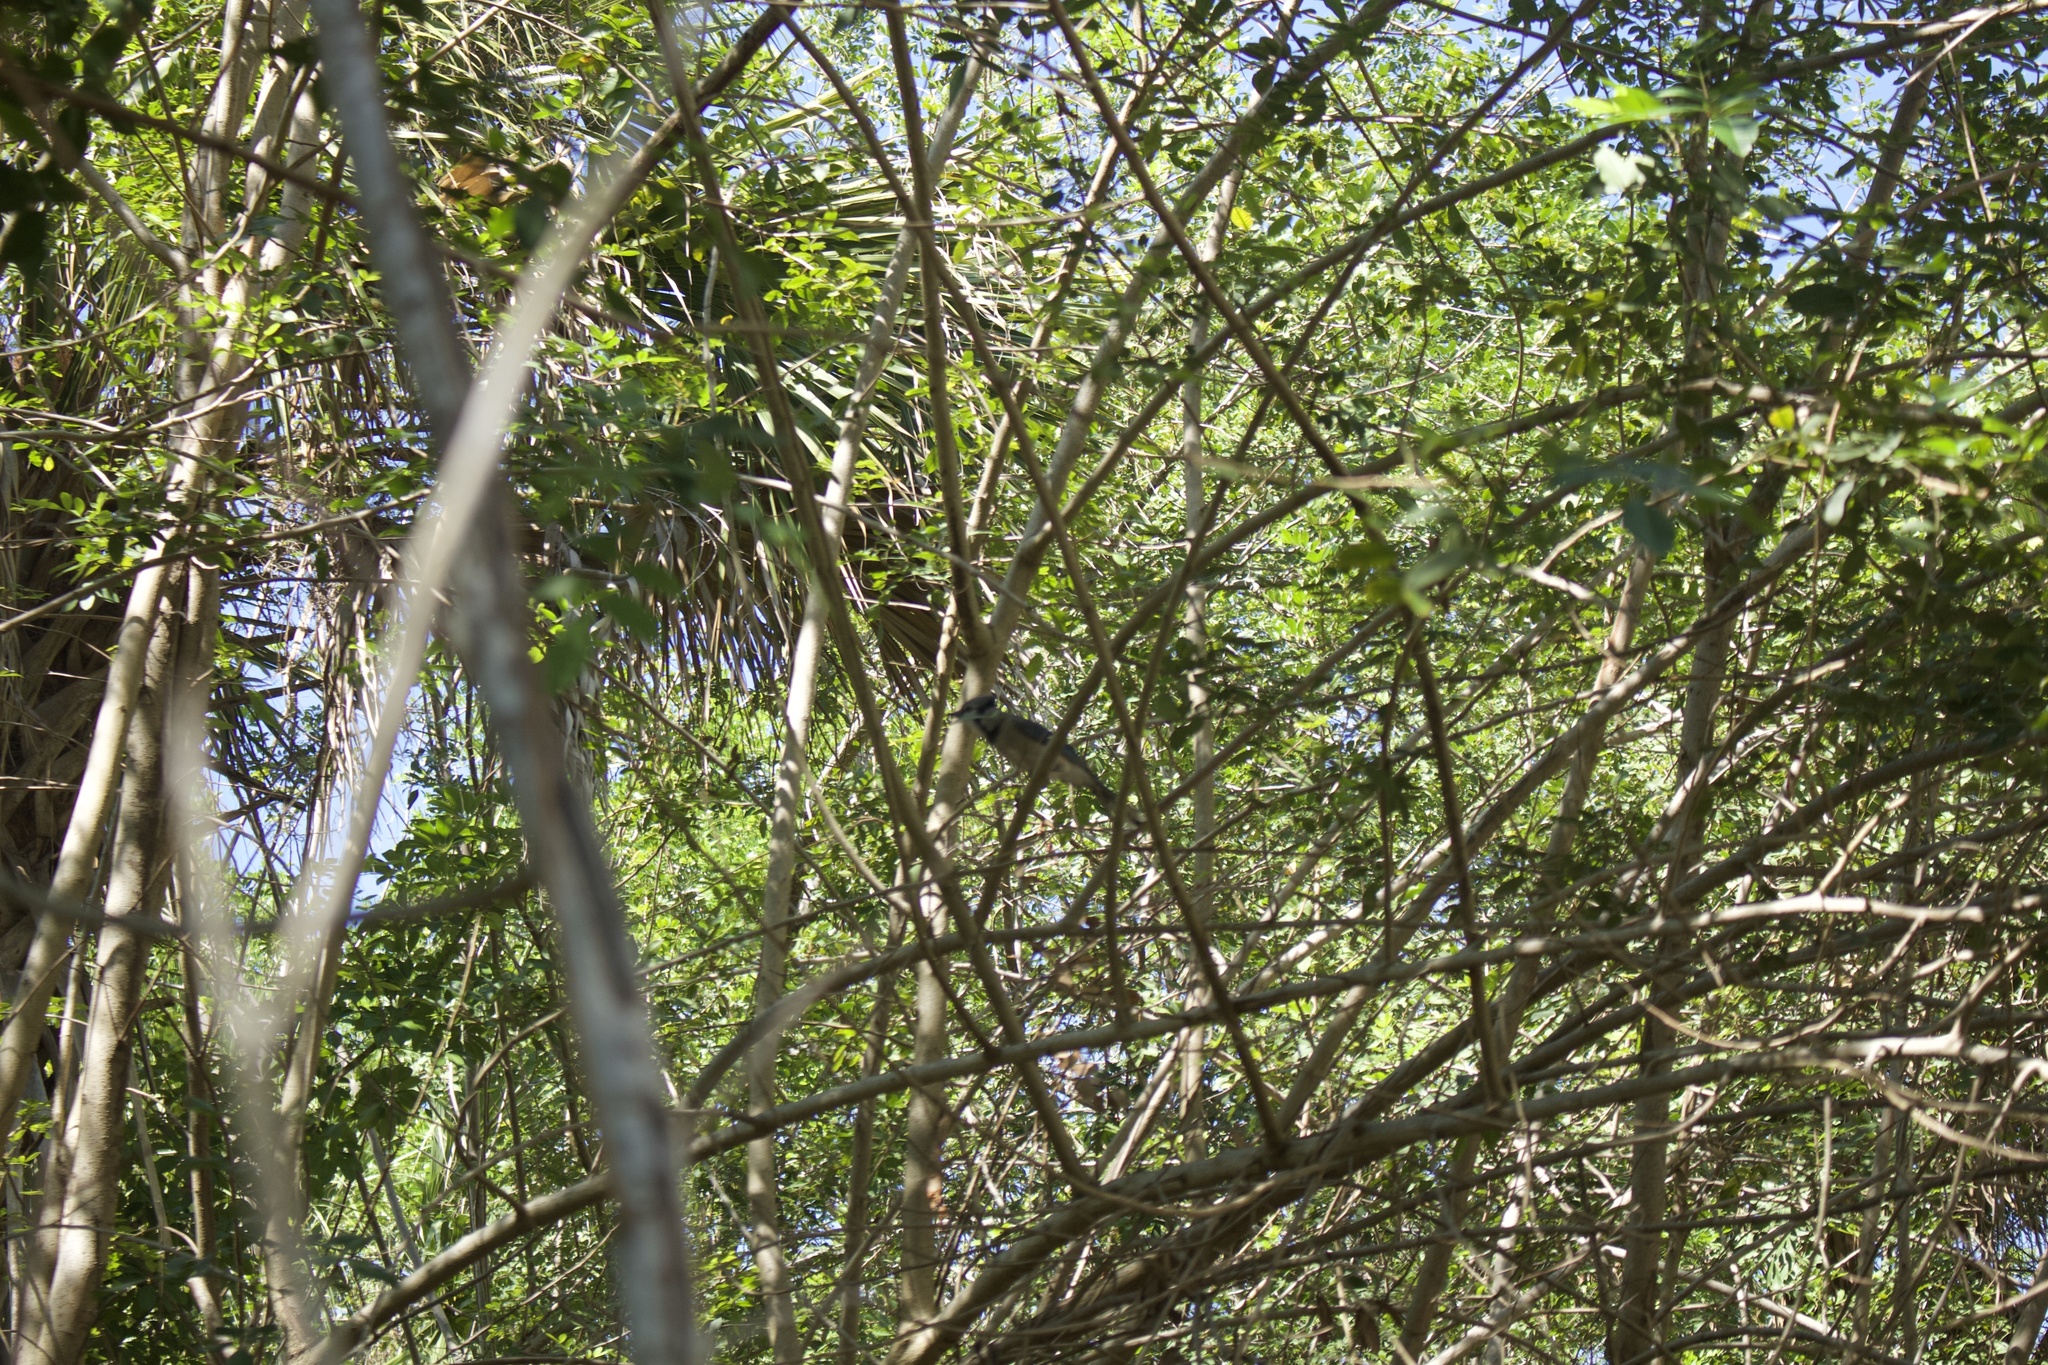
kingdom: Animalia
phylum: Chordata
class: Aves
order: Passeriformes
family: Corvidae
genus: Cyanocitta
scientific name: Cyanocitta cristata
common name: Blue jay
